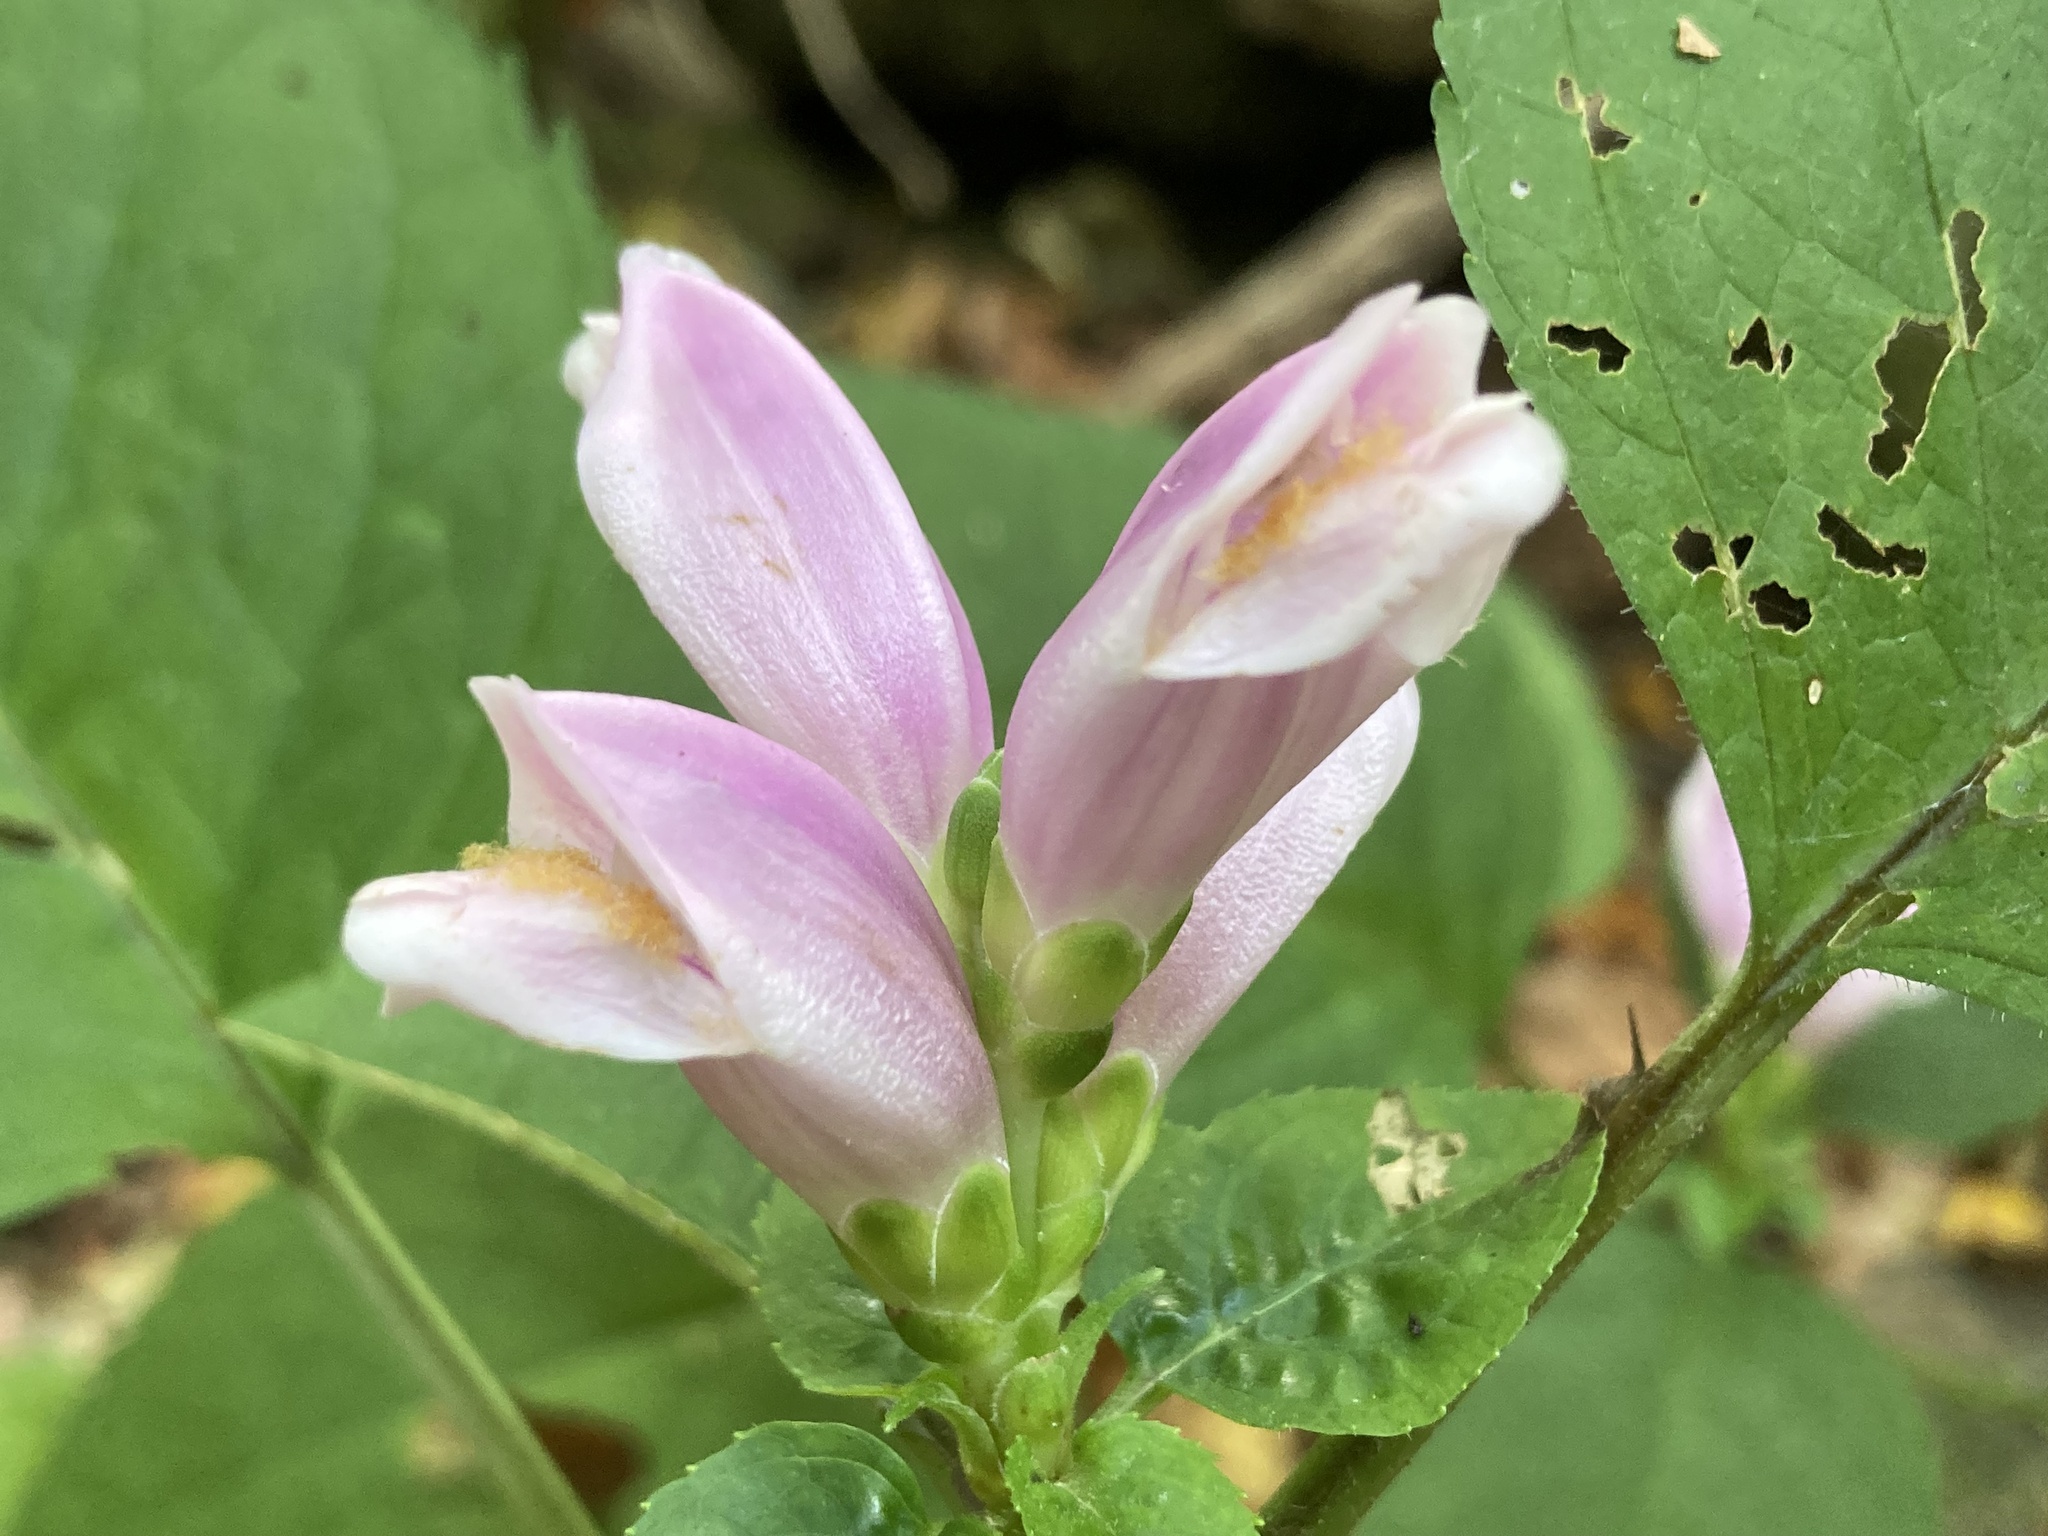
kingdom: Plantae
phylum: Tracheophyta
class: Magnoliopsida
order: Lamiales
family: Plantaginaceae
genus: Chelone
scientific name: Chelone lyonii
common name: Pink turtlehead
